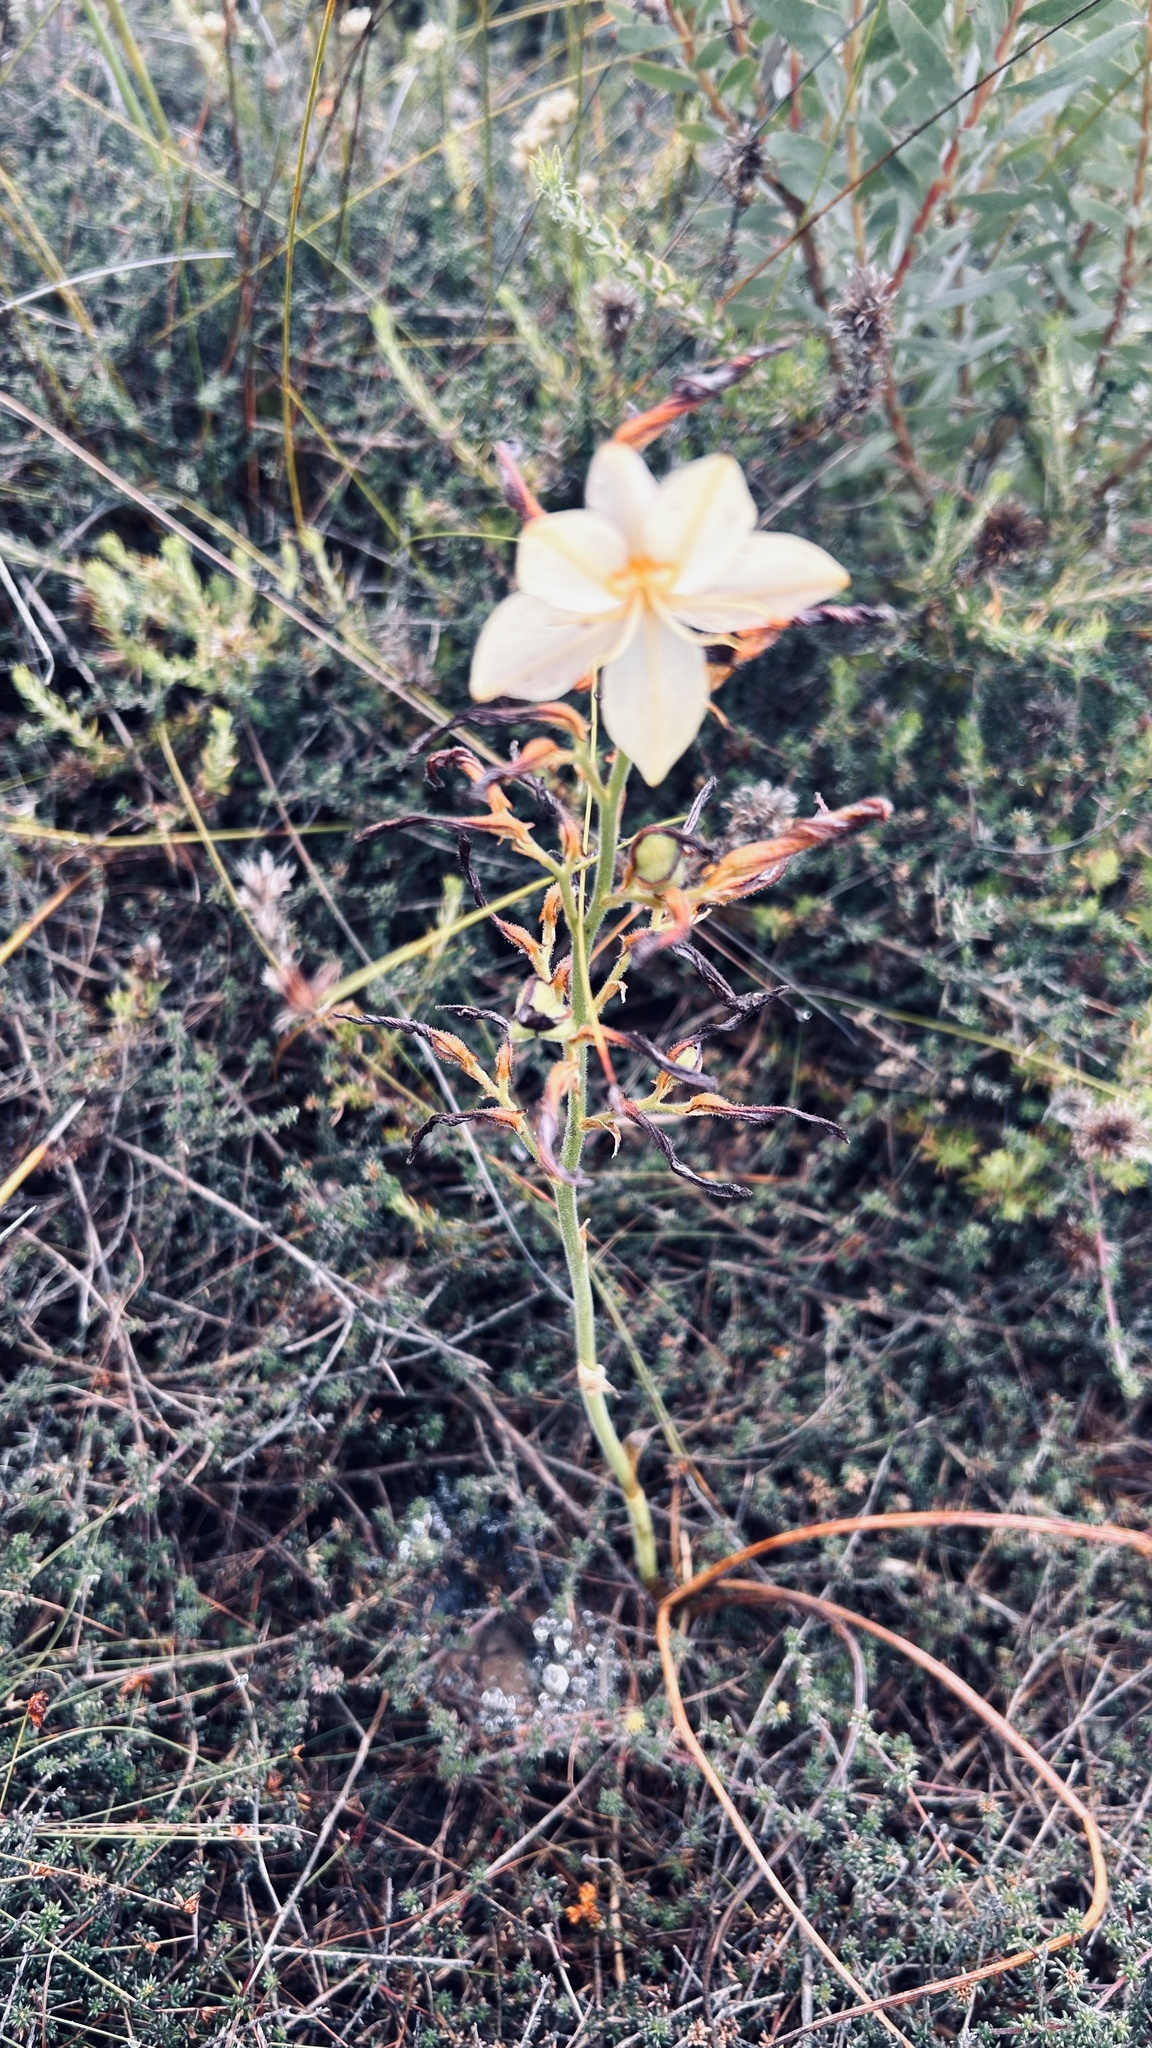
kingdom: Plantae
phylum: Tracheophyta
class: Liliopsida
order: Commelinales
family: Haemodoraceae
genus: Wachendorfia
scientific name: Wachendorfia paniculata
